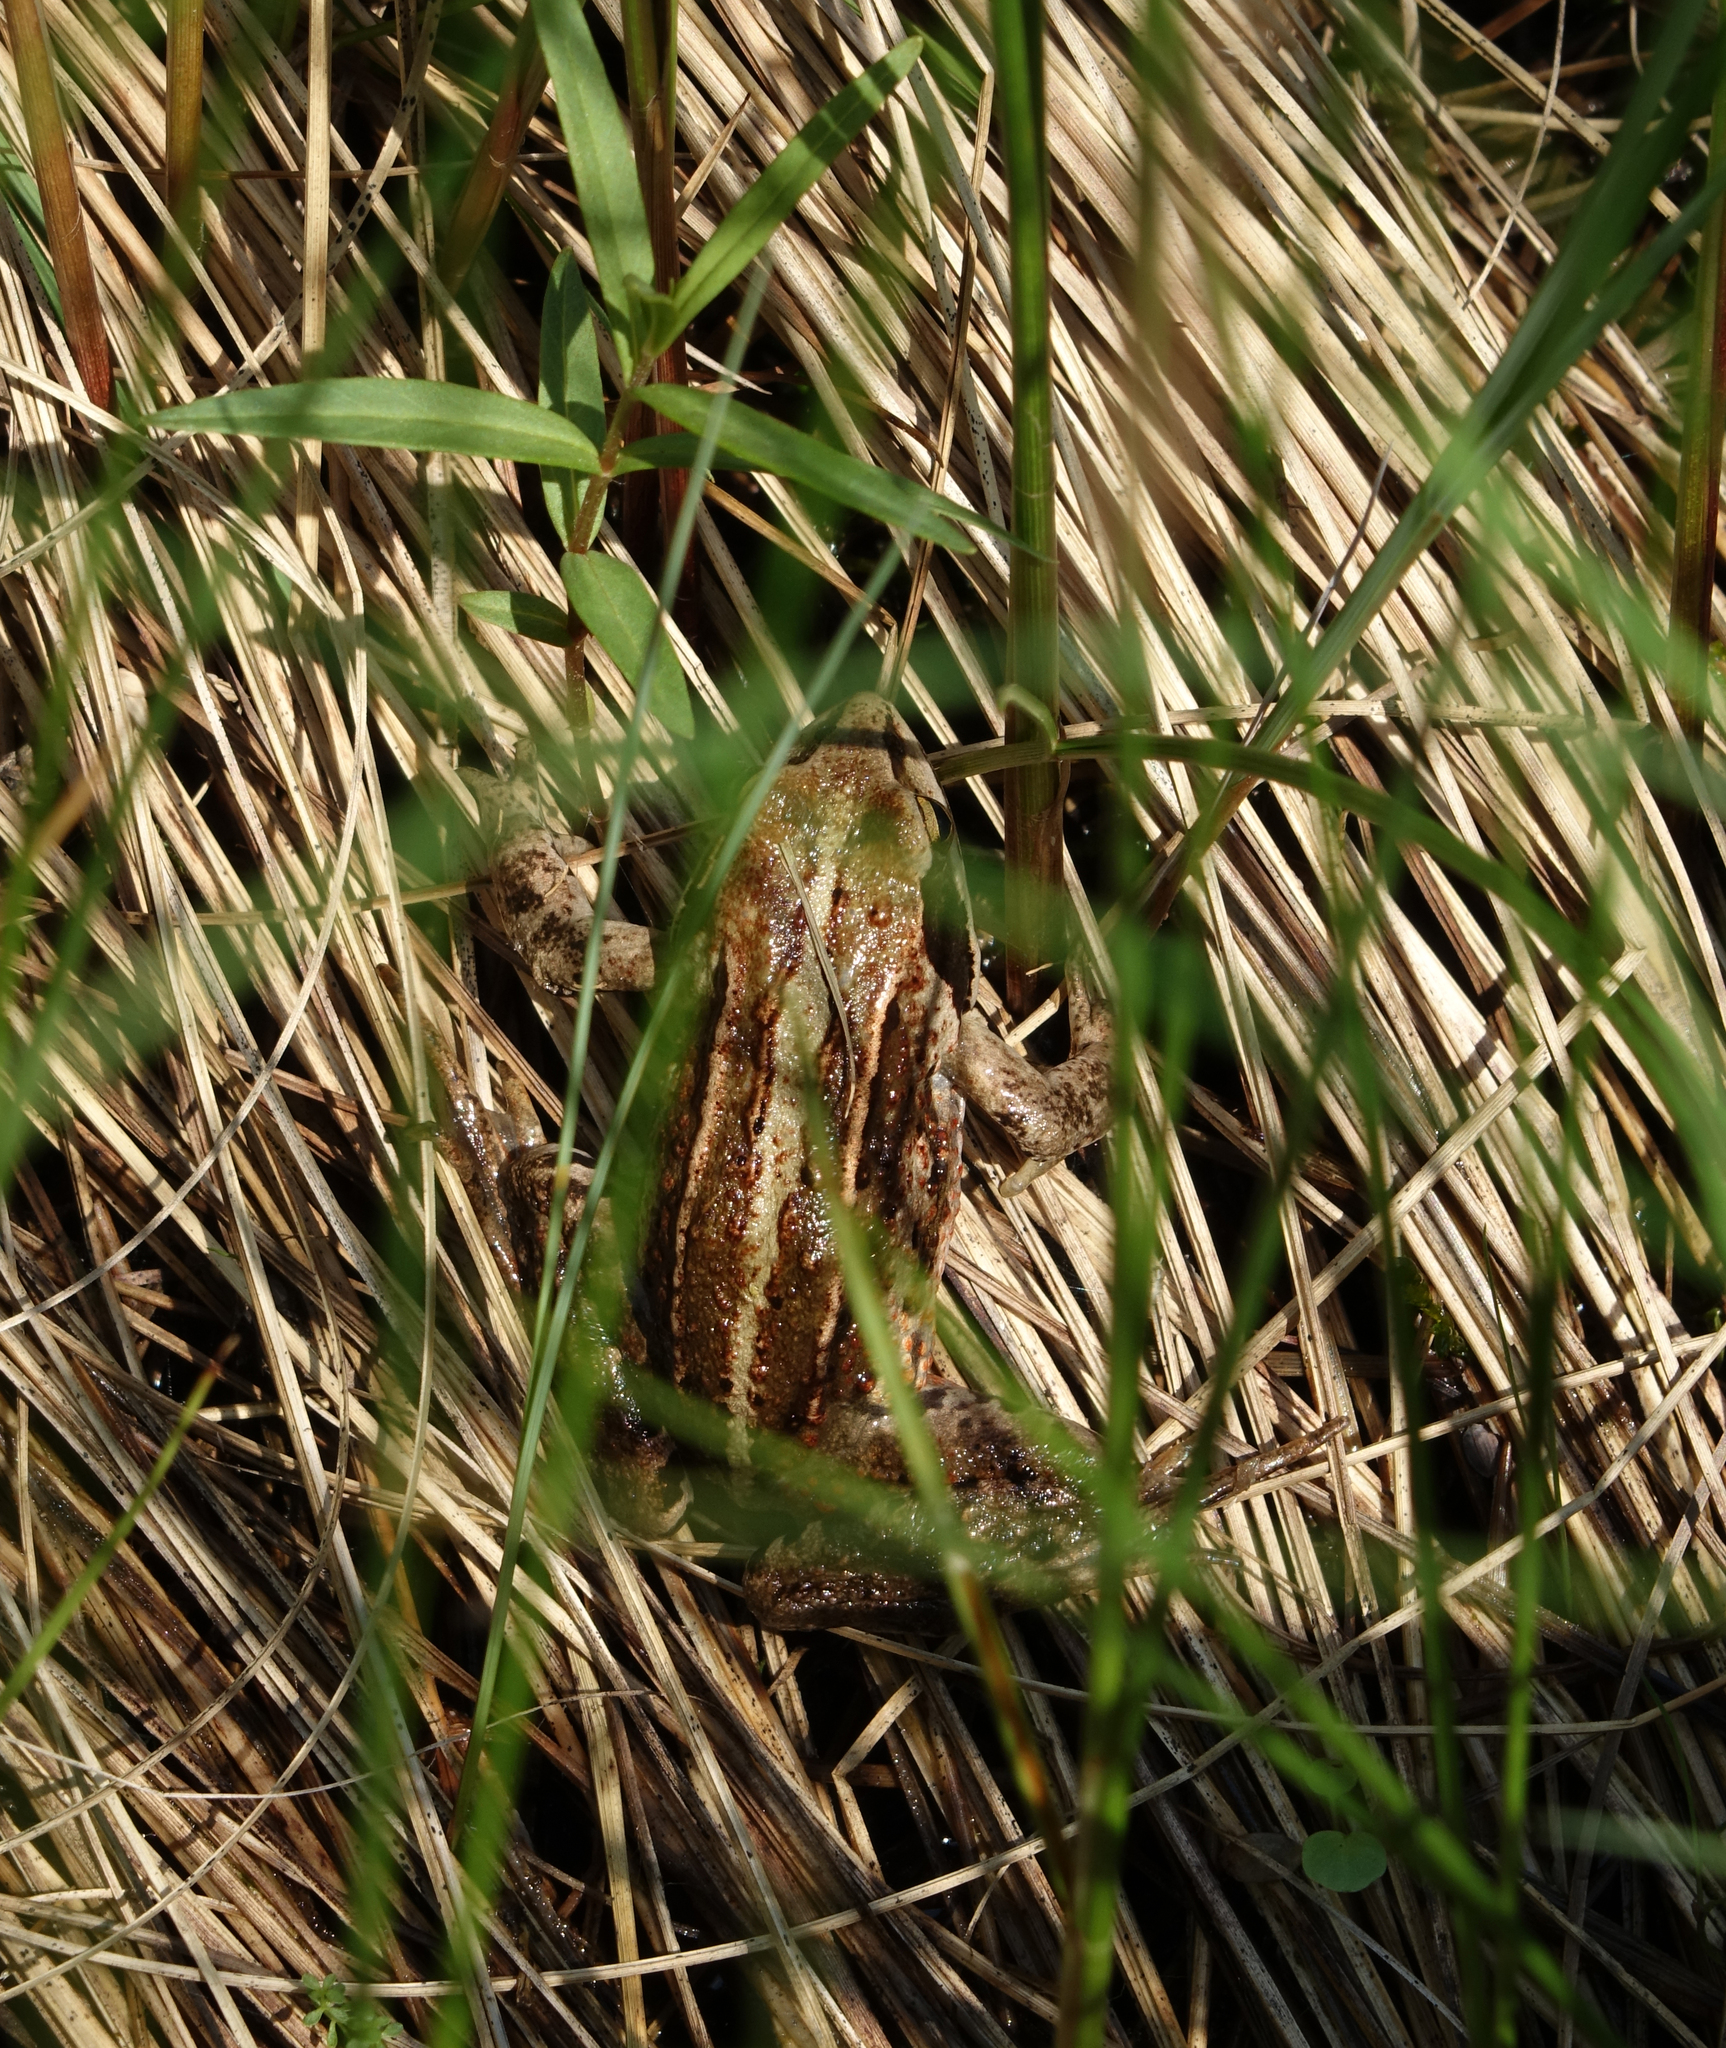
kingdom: Animalia
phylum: Chordata
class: Amphibia
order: Anura
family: Ranidae
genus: Rana
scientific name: Rana amurensis
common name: Amur brown frog
